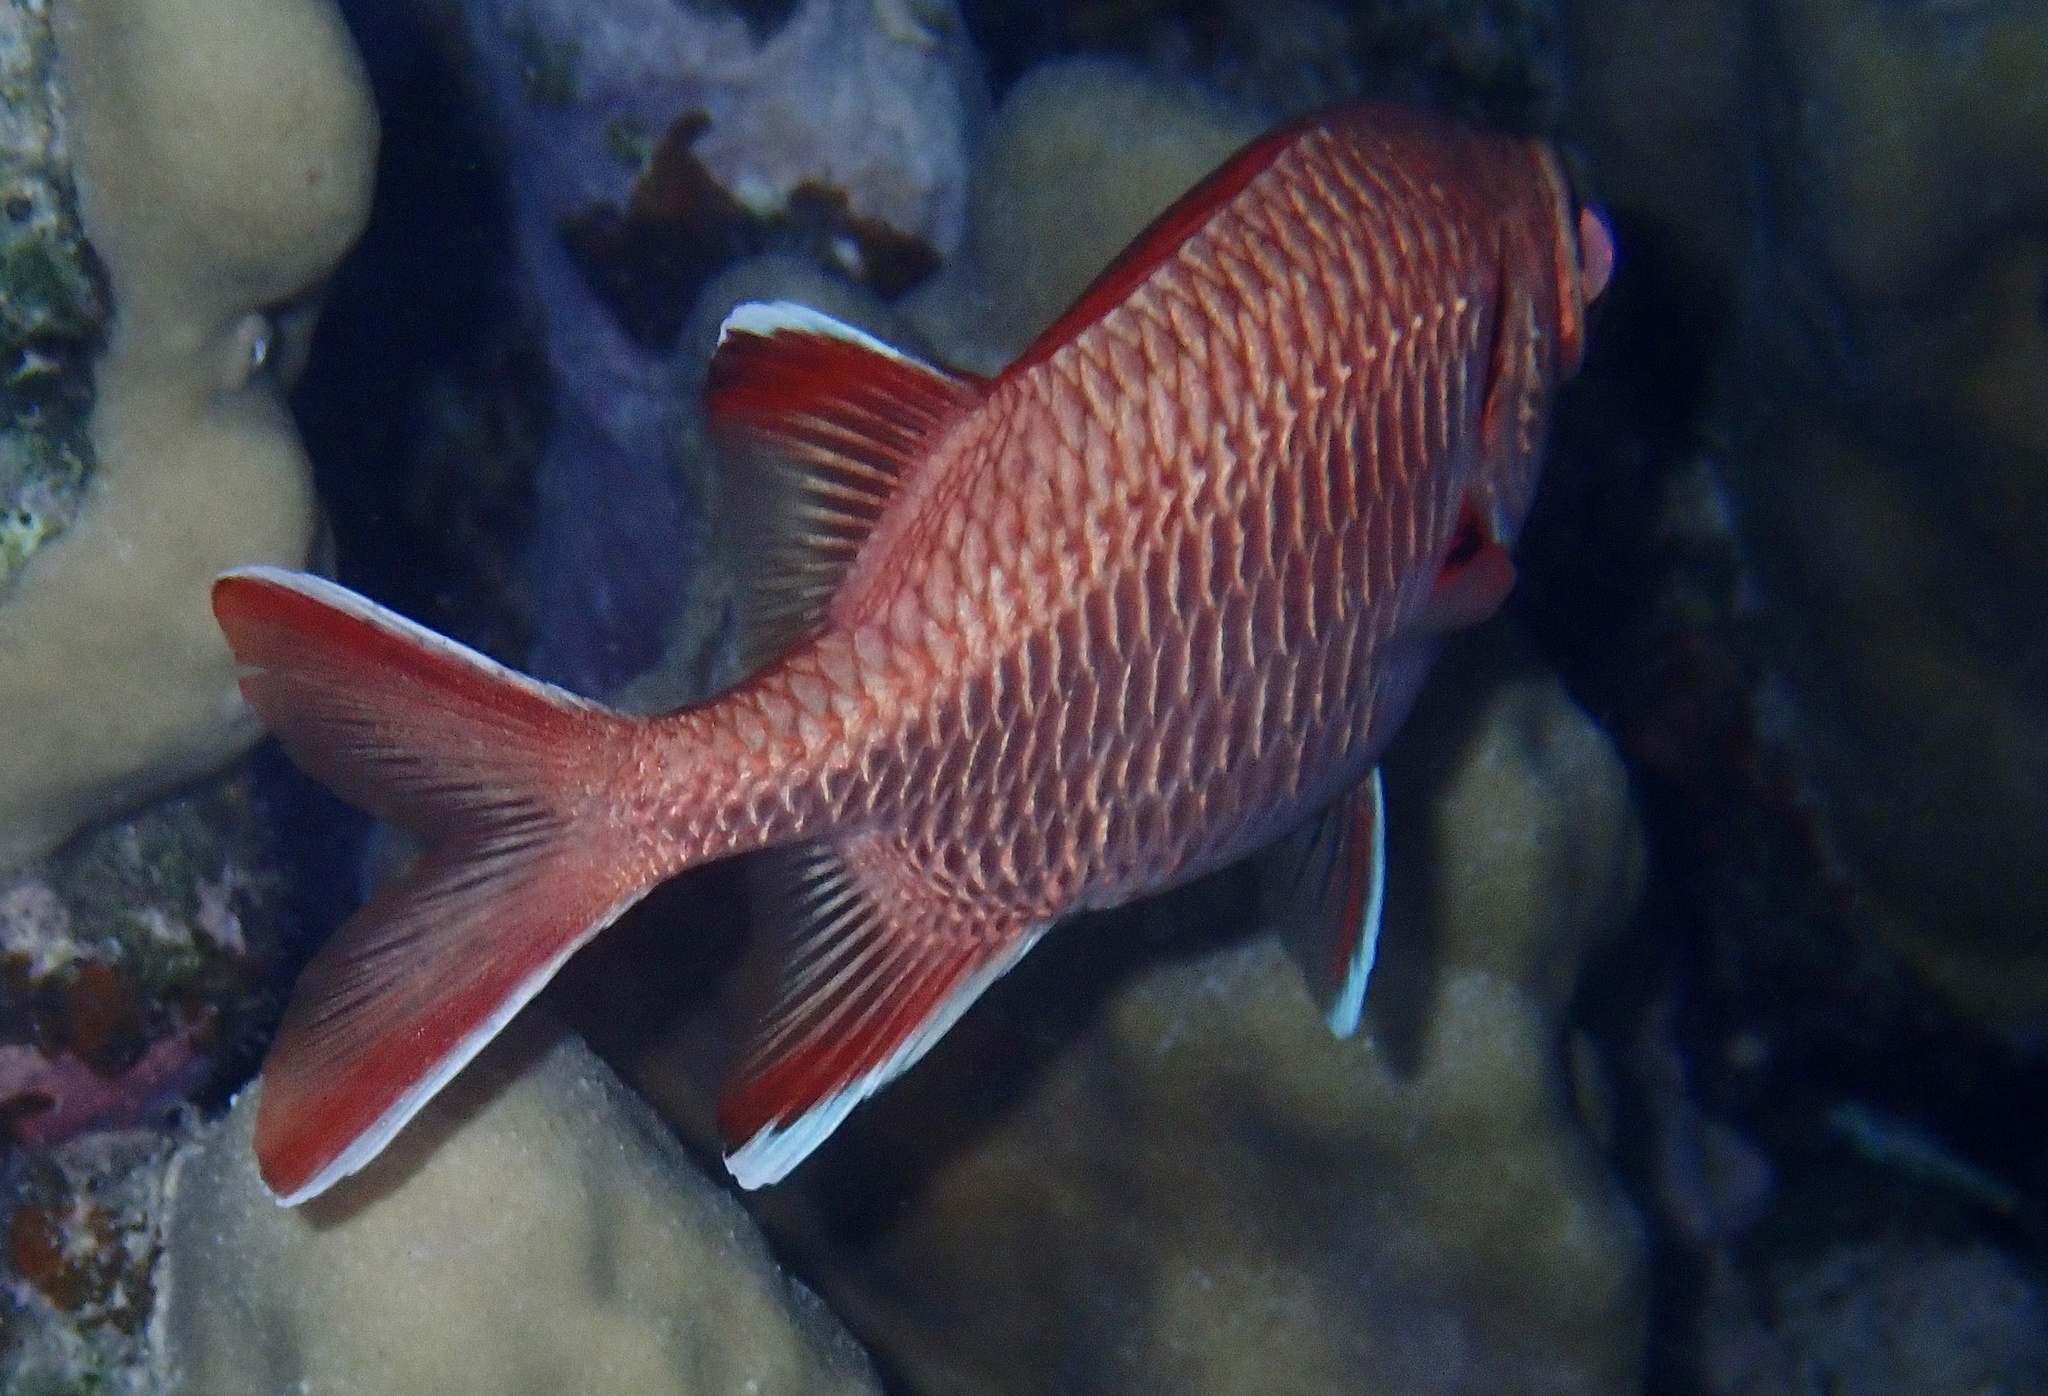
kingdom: Animalia
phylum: Chordata
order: Beryciformes
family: Holocentridae
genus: Myripristis
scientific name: Myripristis murdjan
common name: Big-eye soldierfish
